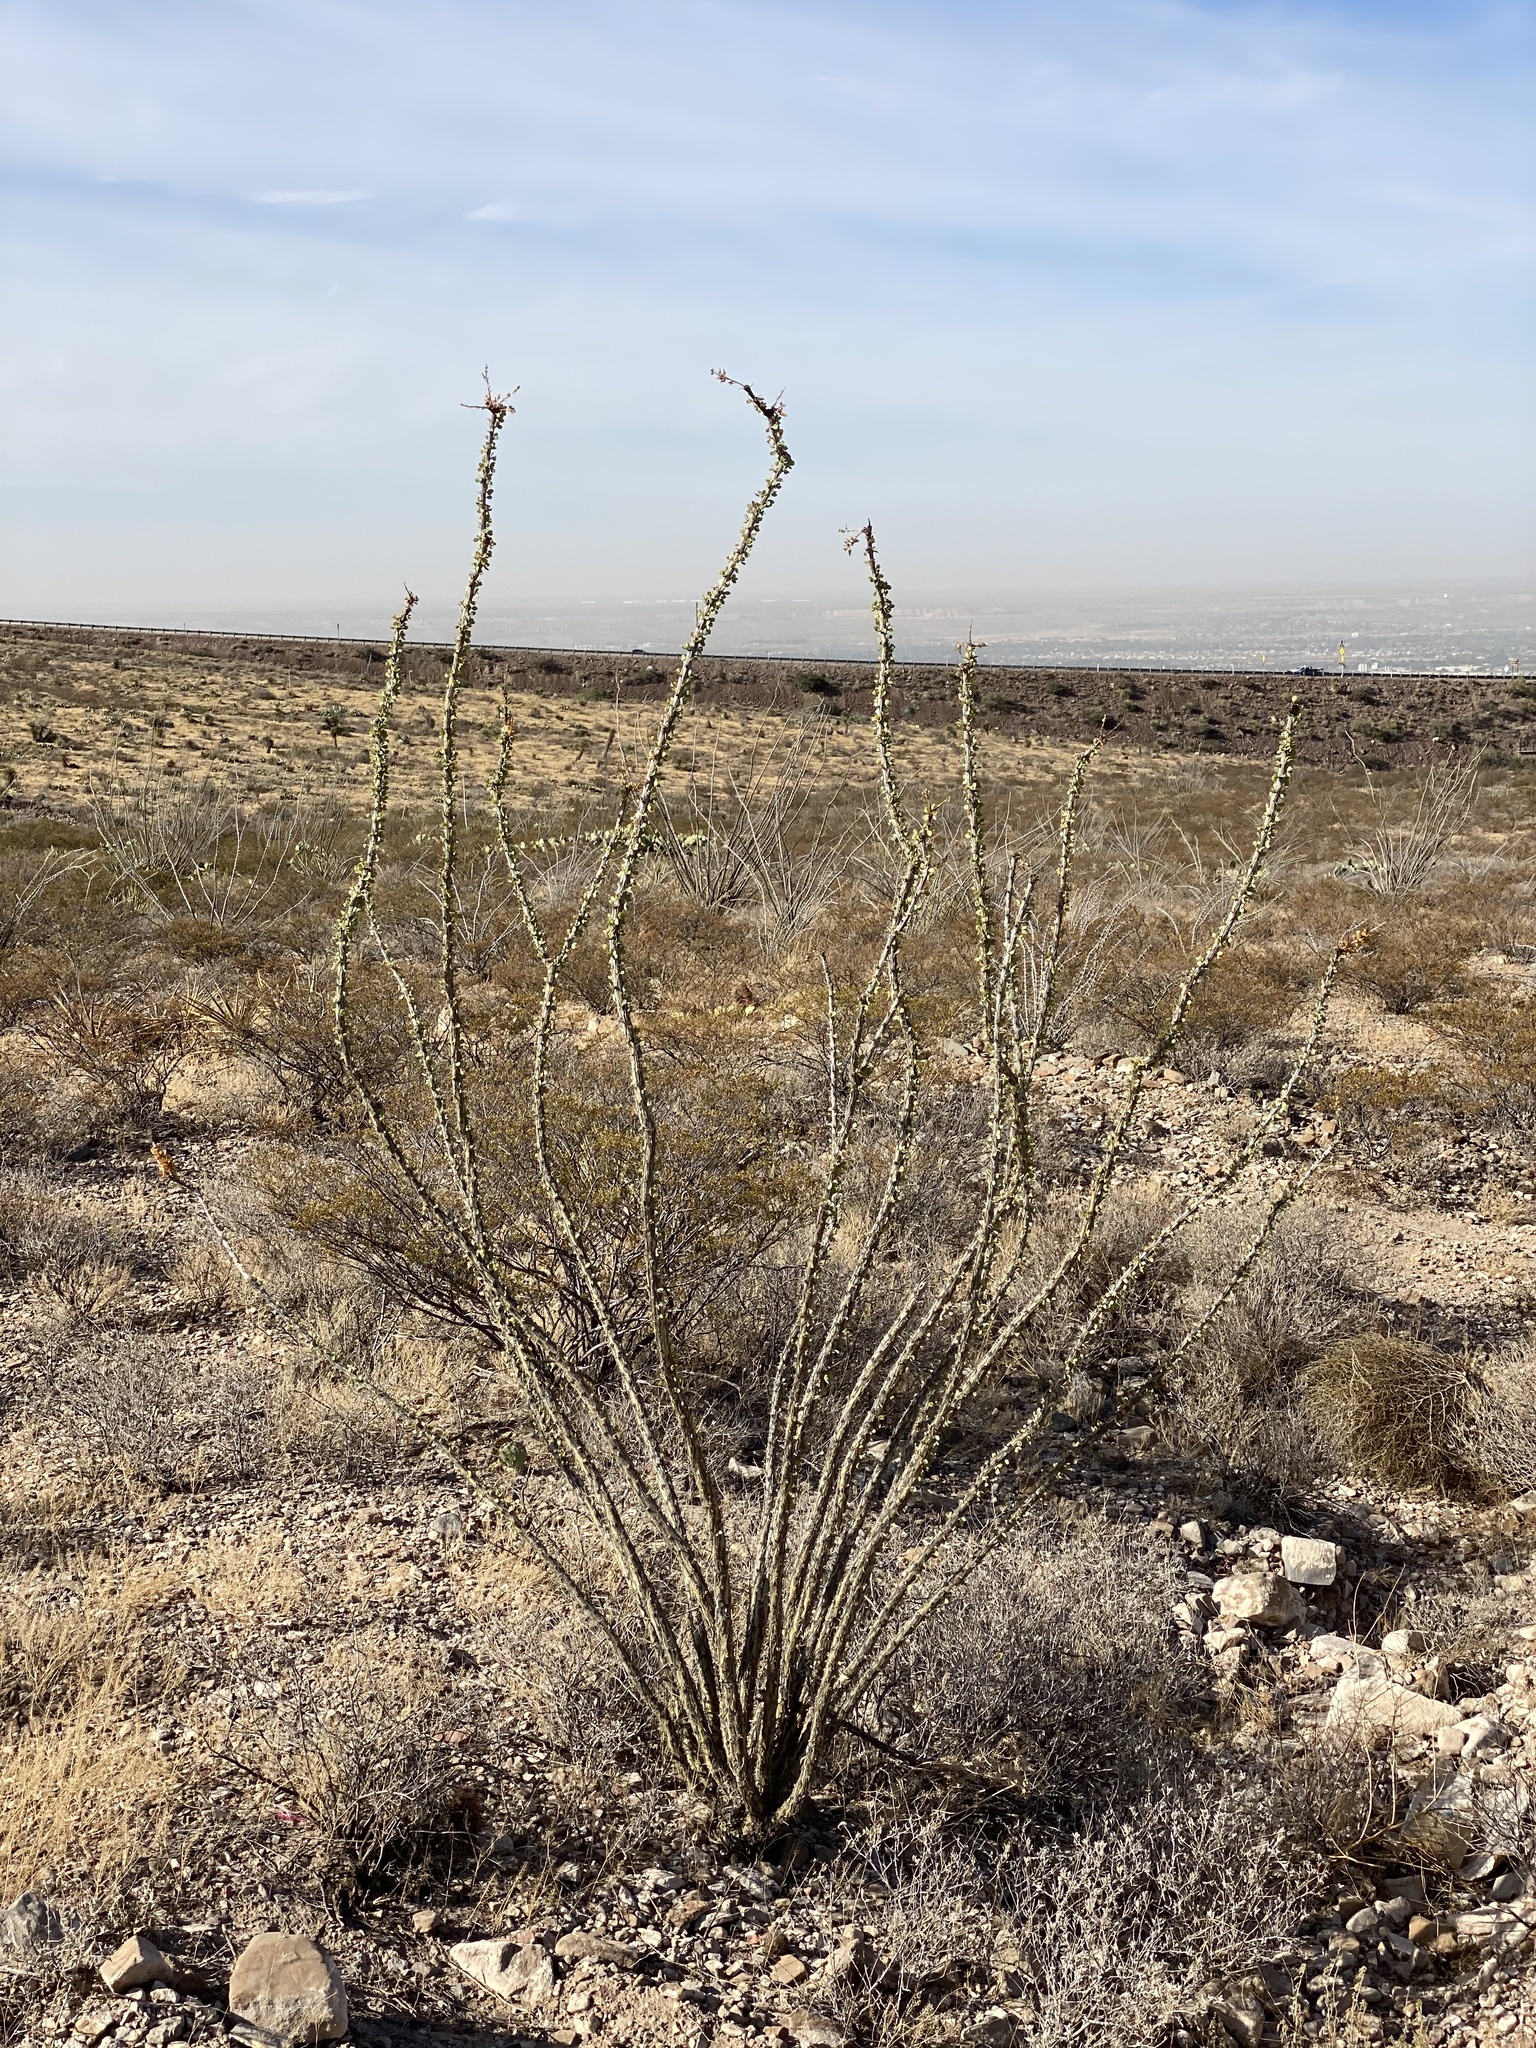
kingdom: Plantae
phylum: Tracheophyta
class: Magnoliopsida
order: Ericales
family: Fouquieriaceae
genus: Fouquieria
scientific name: Fouquieria splendens
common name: Vine-cactus
